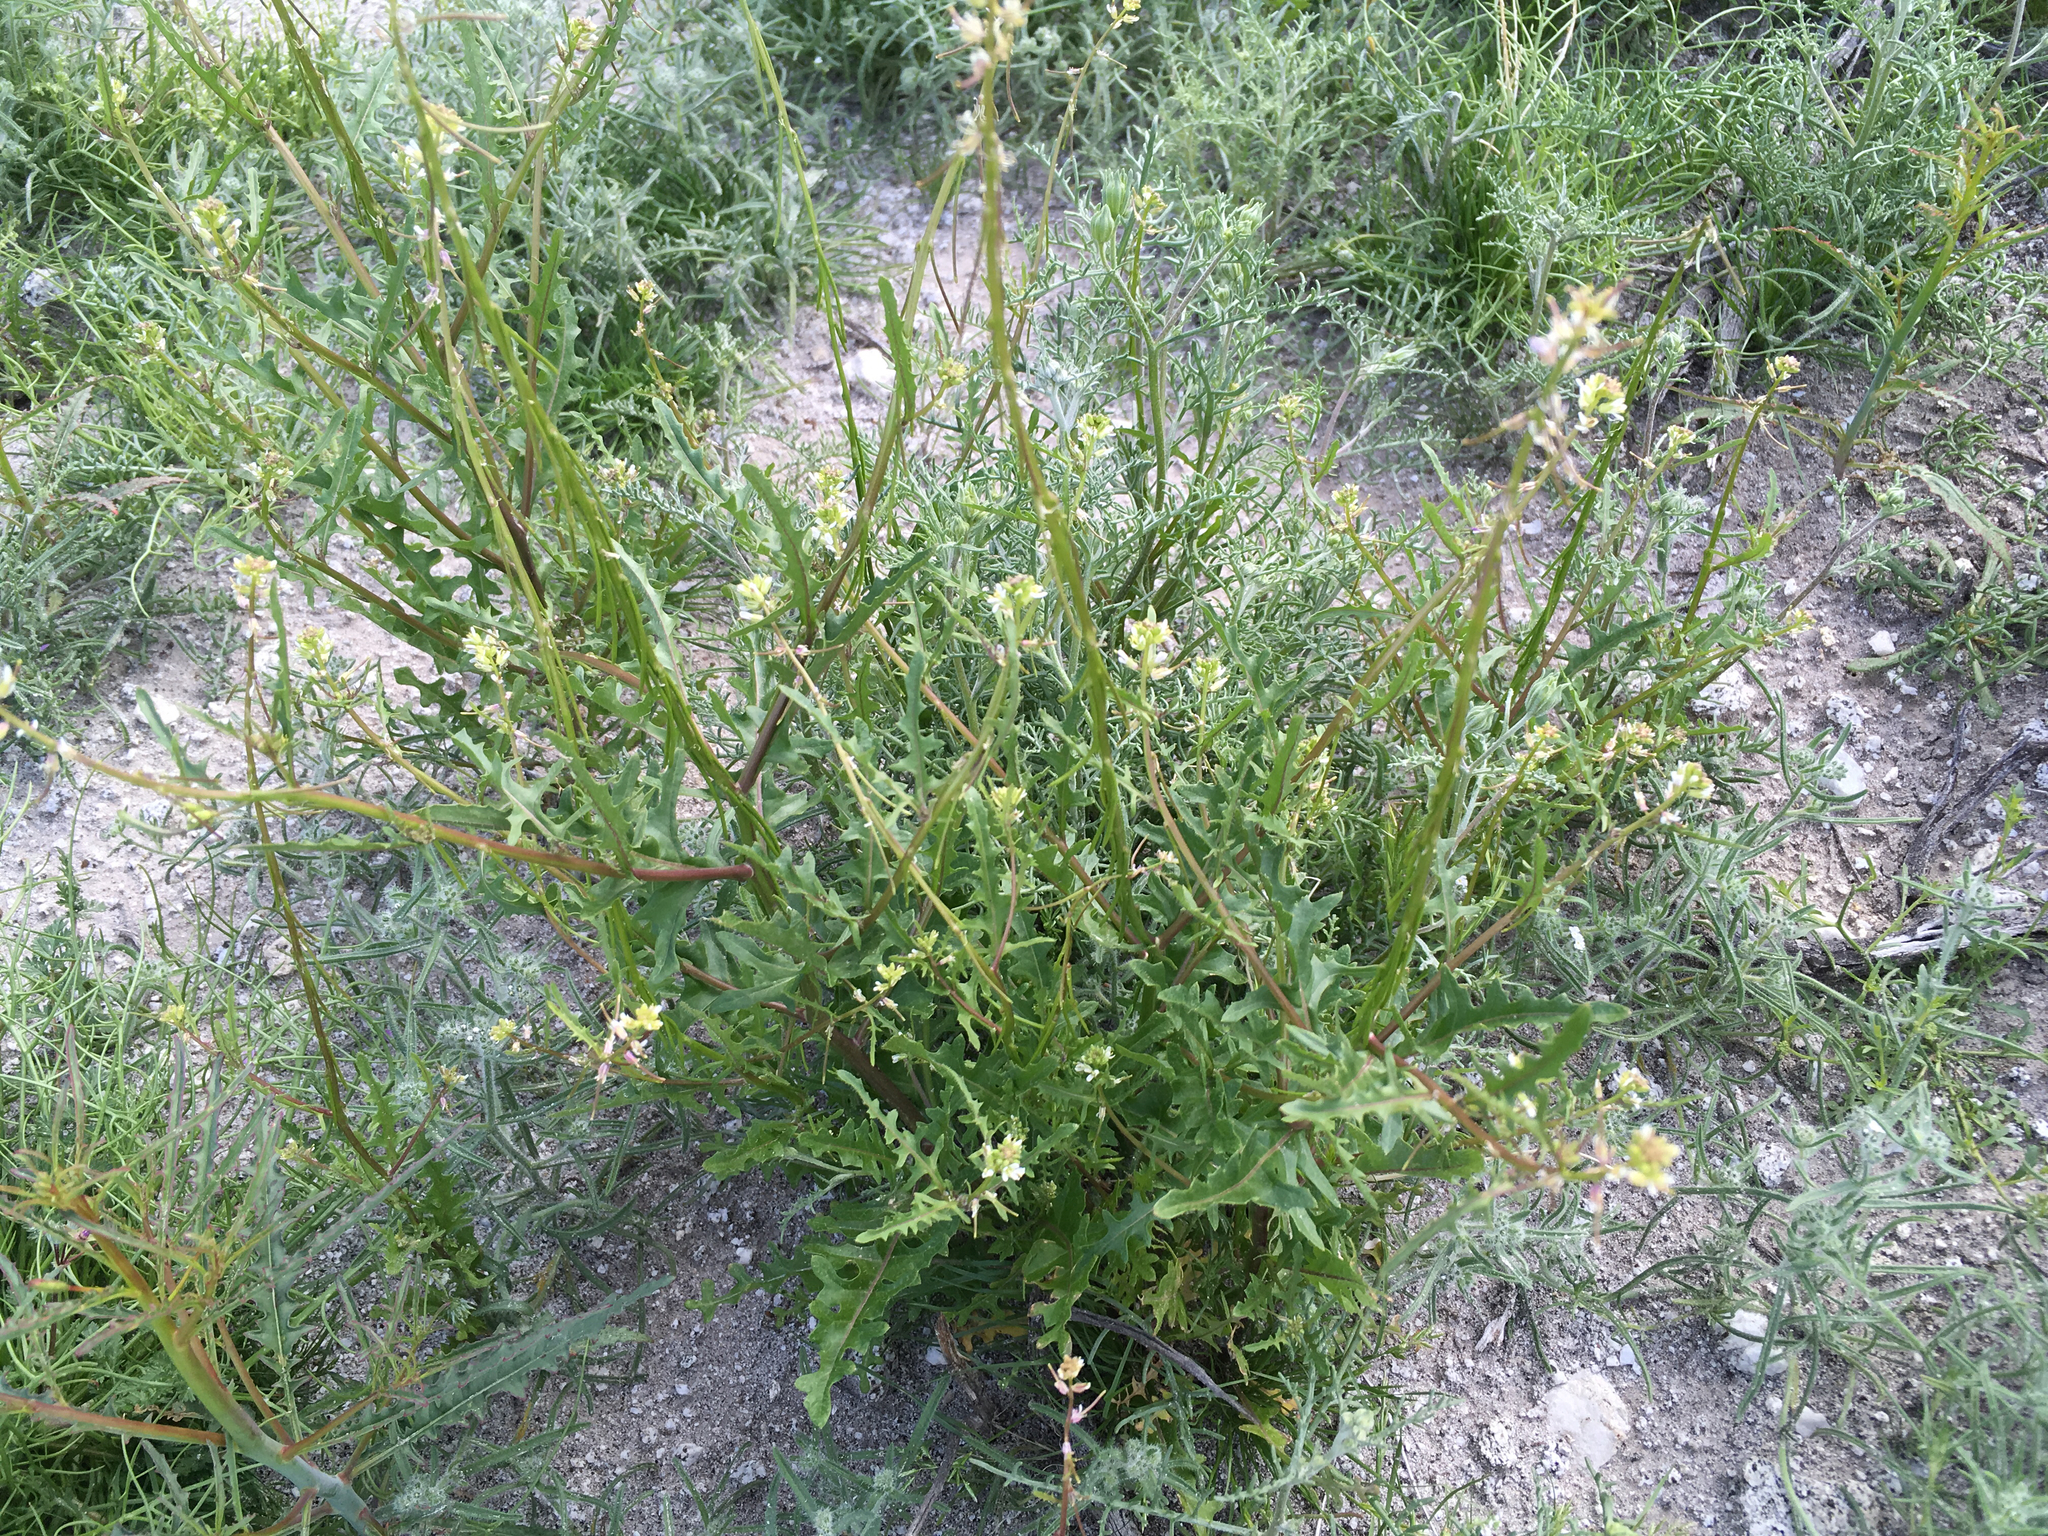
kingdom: Plantae
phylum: Tracheophyta
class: Magnoliopsida
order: Brassicales
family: Brassicaceae
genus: Streptanthus
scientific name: Streptanthus lasiophyllus
